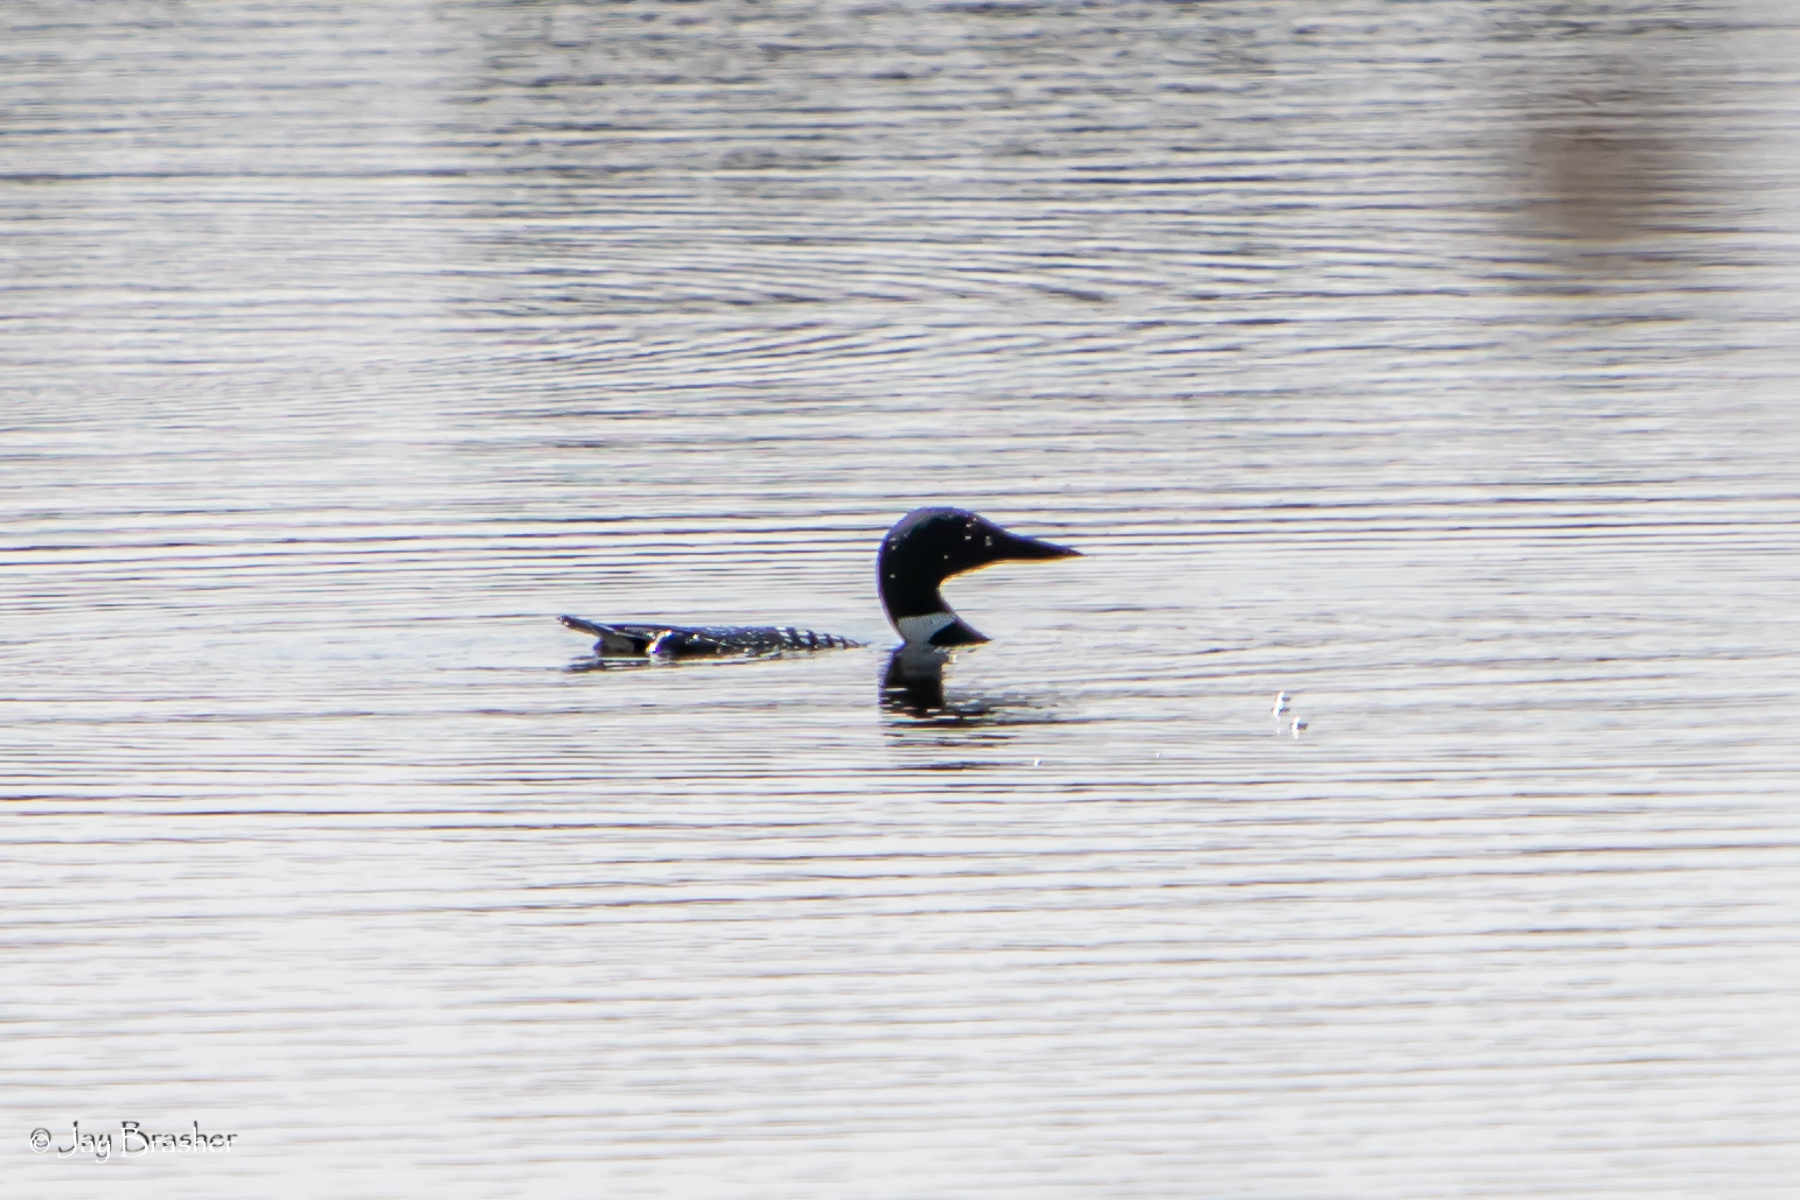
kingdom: Animalia
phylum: Chordata
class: Aves
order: Gaviiformes
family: Gaviidae
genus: Gavia
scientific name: Gavia immer
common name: Common loon
